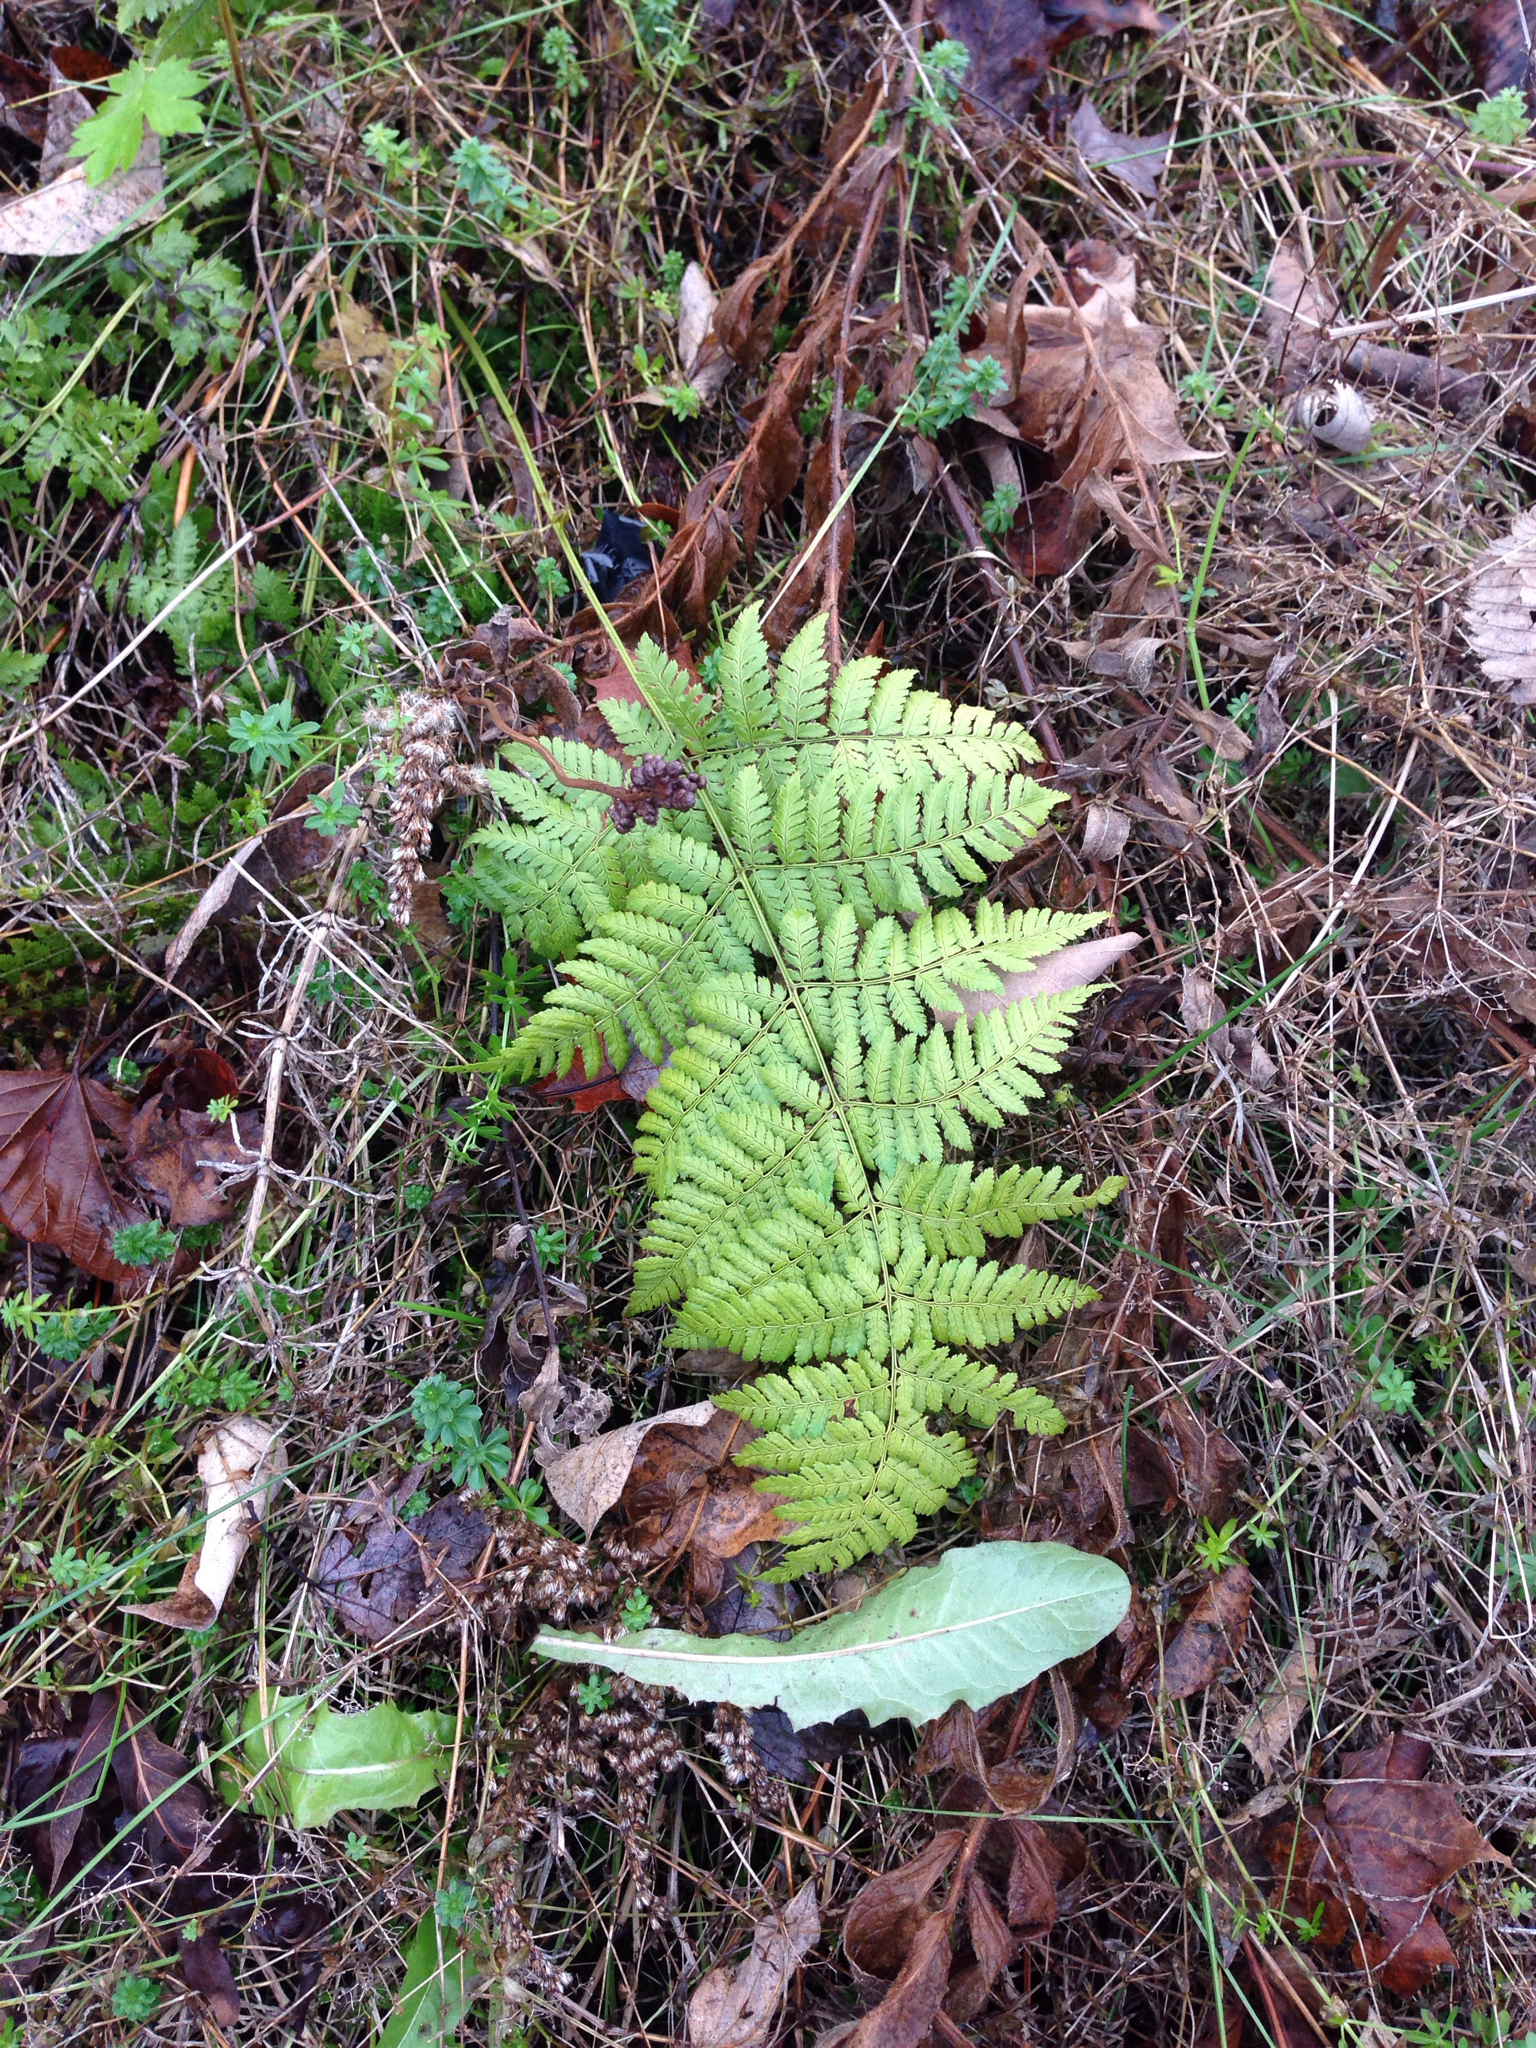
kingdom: Plantae
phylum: Tracheophyta
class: Polypodiopsida
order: Polypodiales
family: Dryopteridaceae
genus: Dryopteris
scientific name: Dryopteris intermedia
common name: Evergreen wood fern
